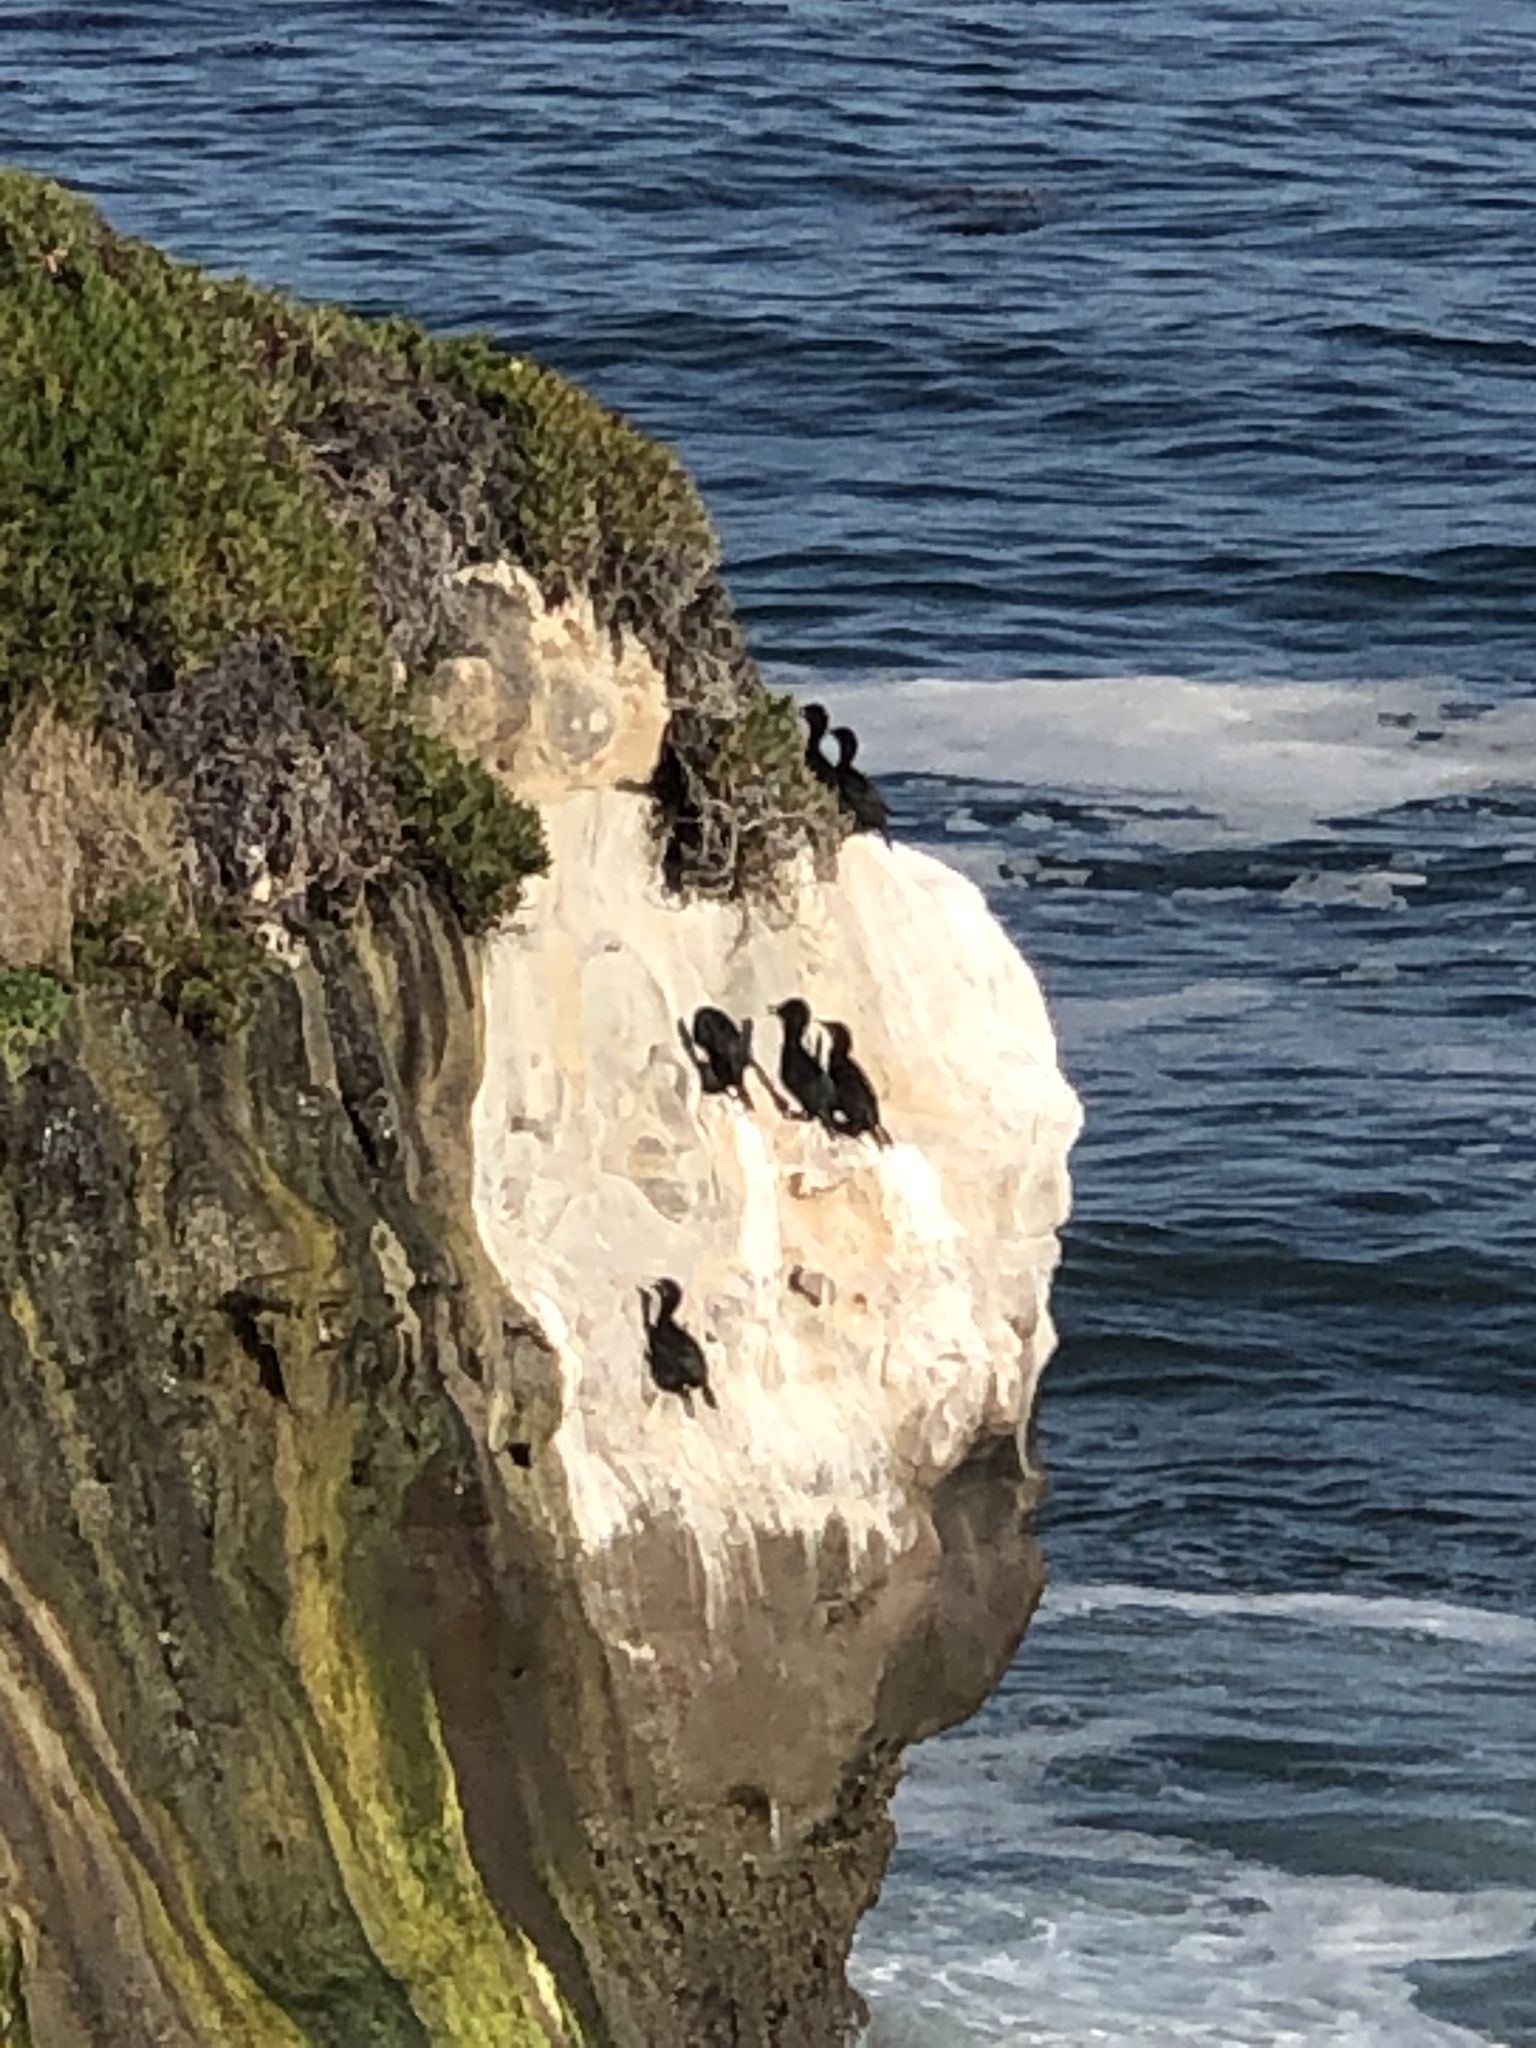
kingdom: Animalia
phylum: Chordata
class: Aves
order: Suliformes
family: Phalacrocoracidae
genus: Urile
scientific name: Urile
